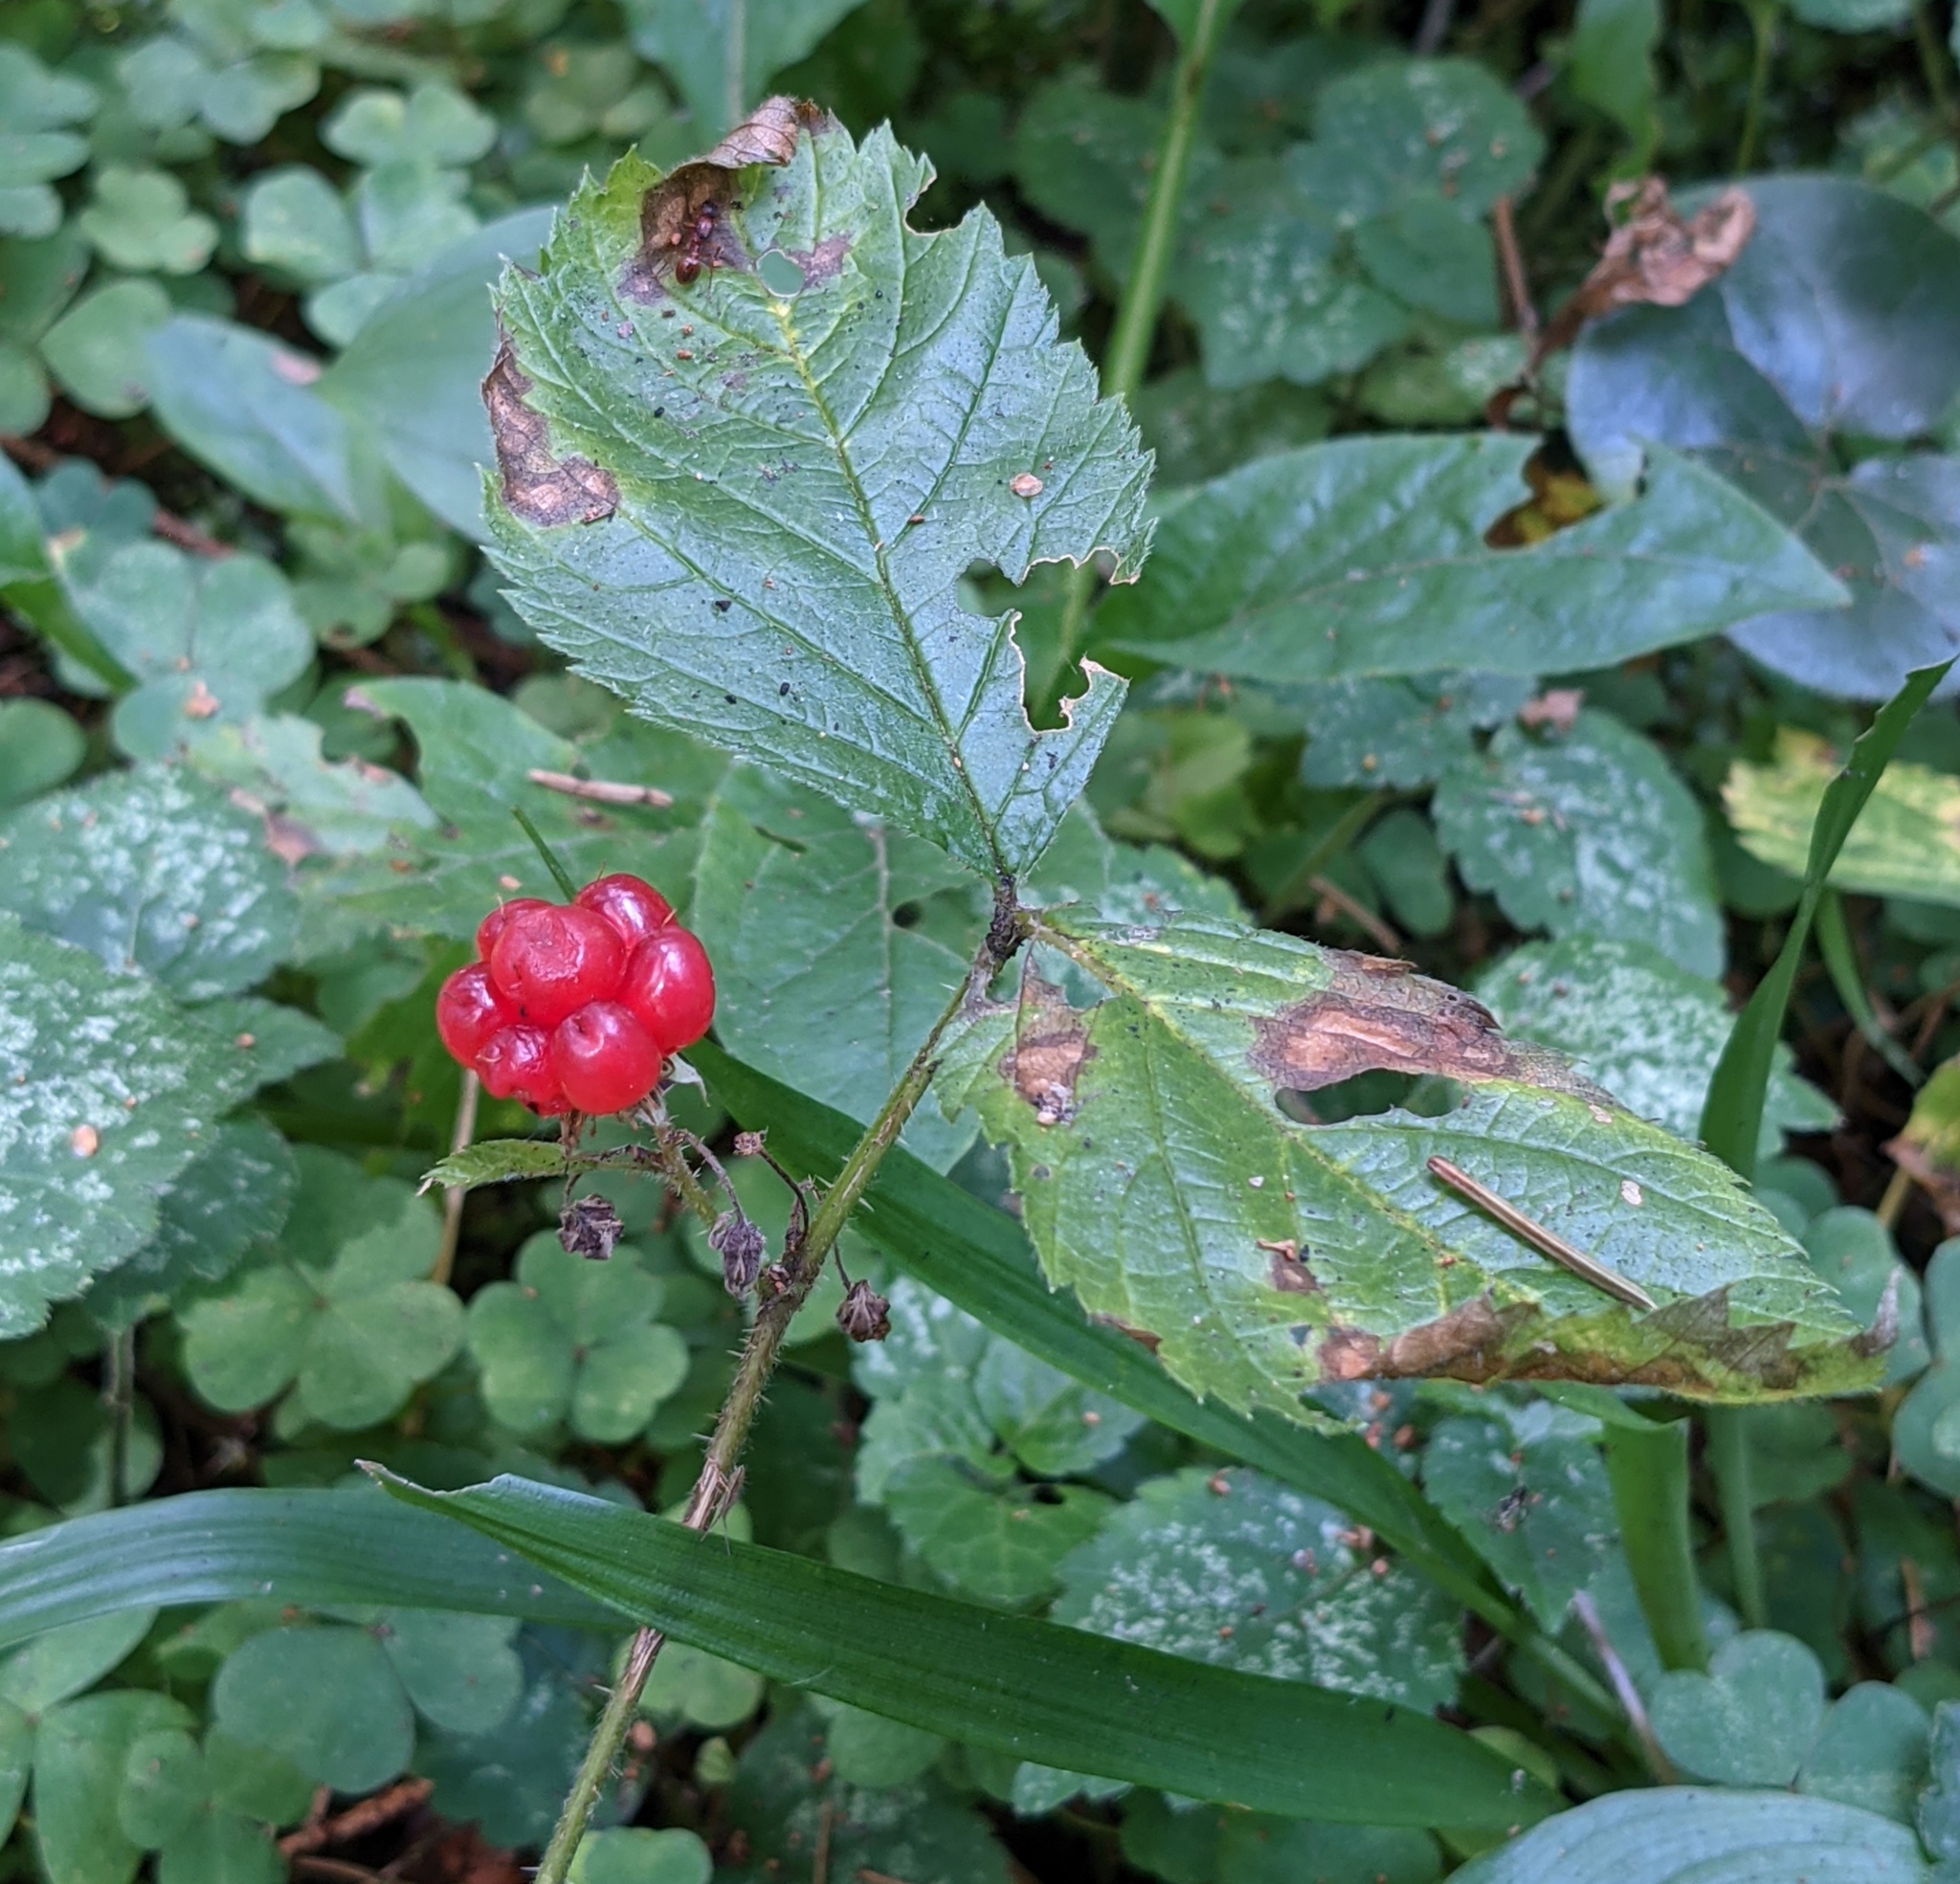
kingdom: Plantae
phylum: Tracheophyta
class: Magnoliopsida
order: Rosales
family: Rosaceae
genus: Rubus
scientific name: Rubus saxatilis
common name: Stone bramble
